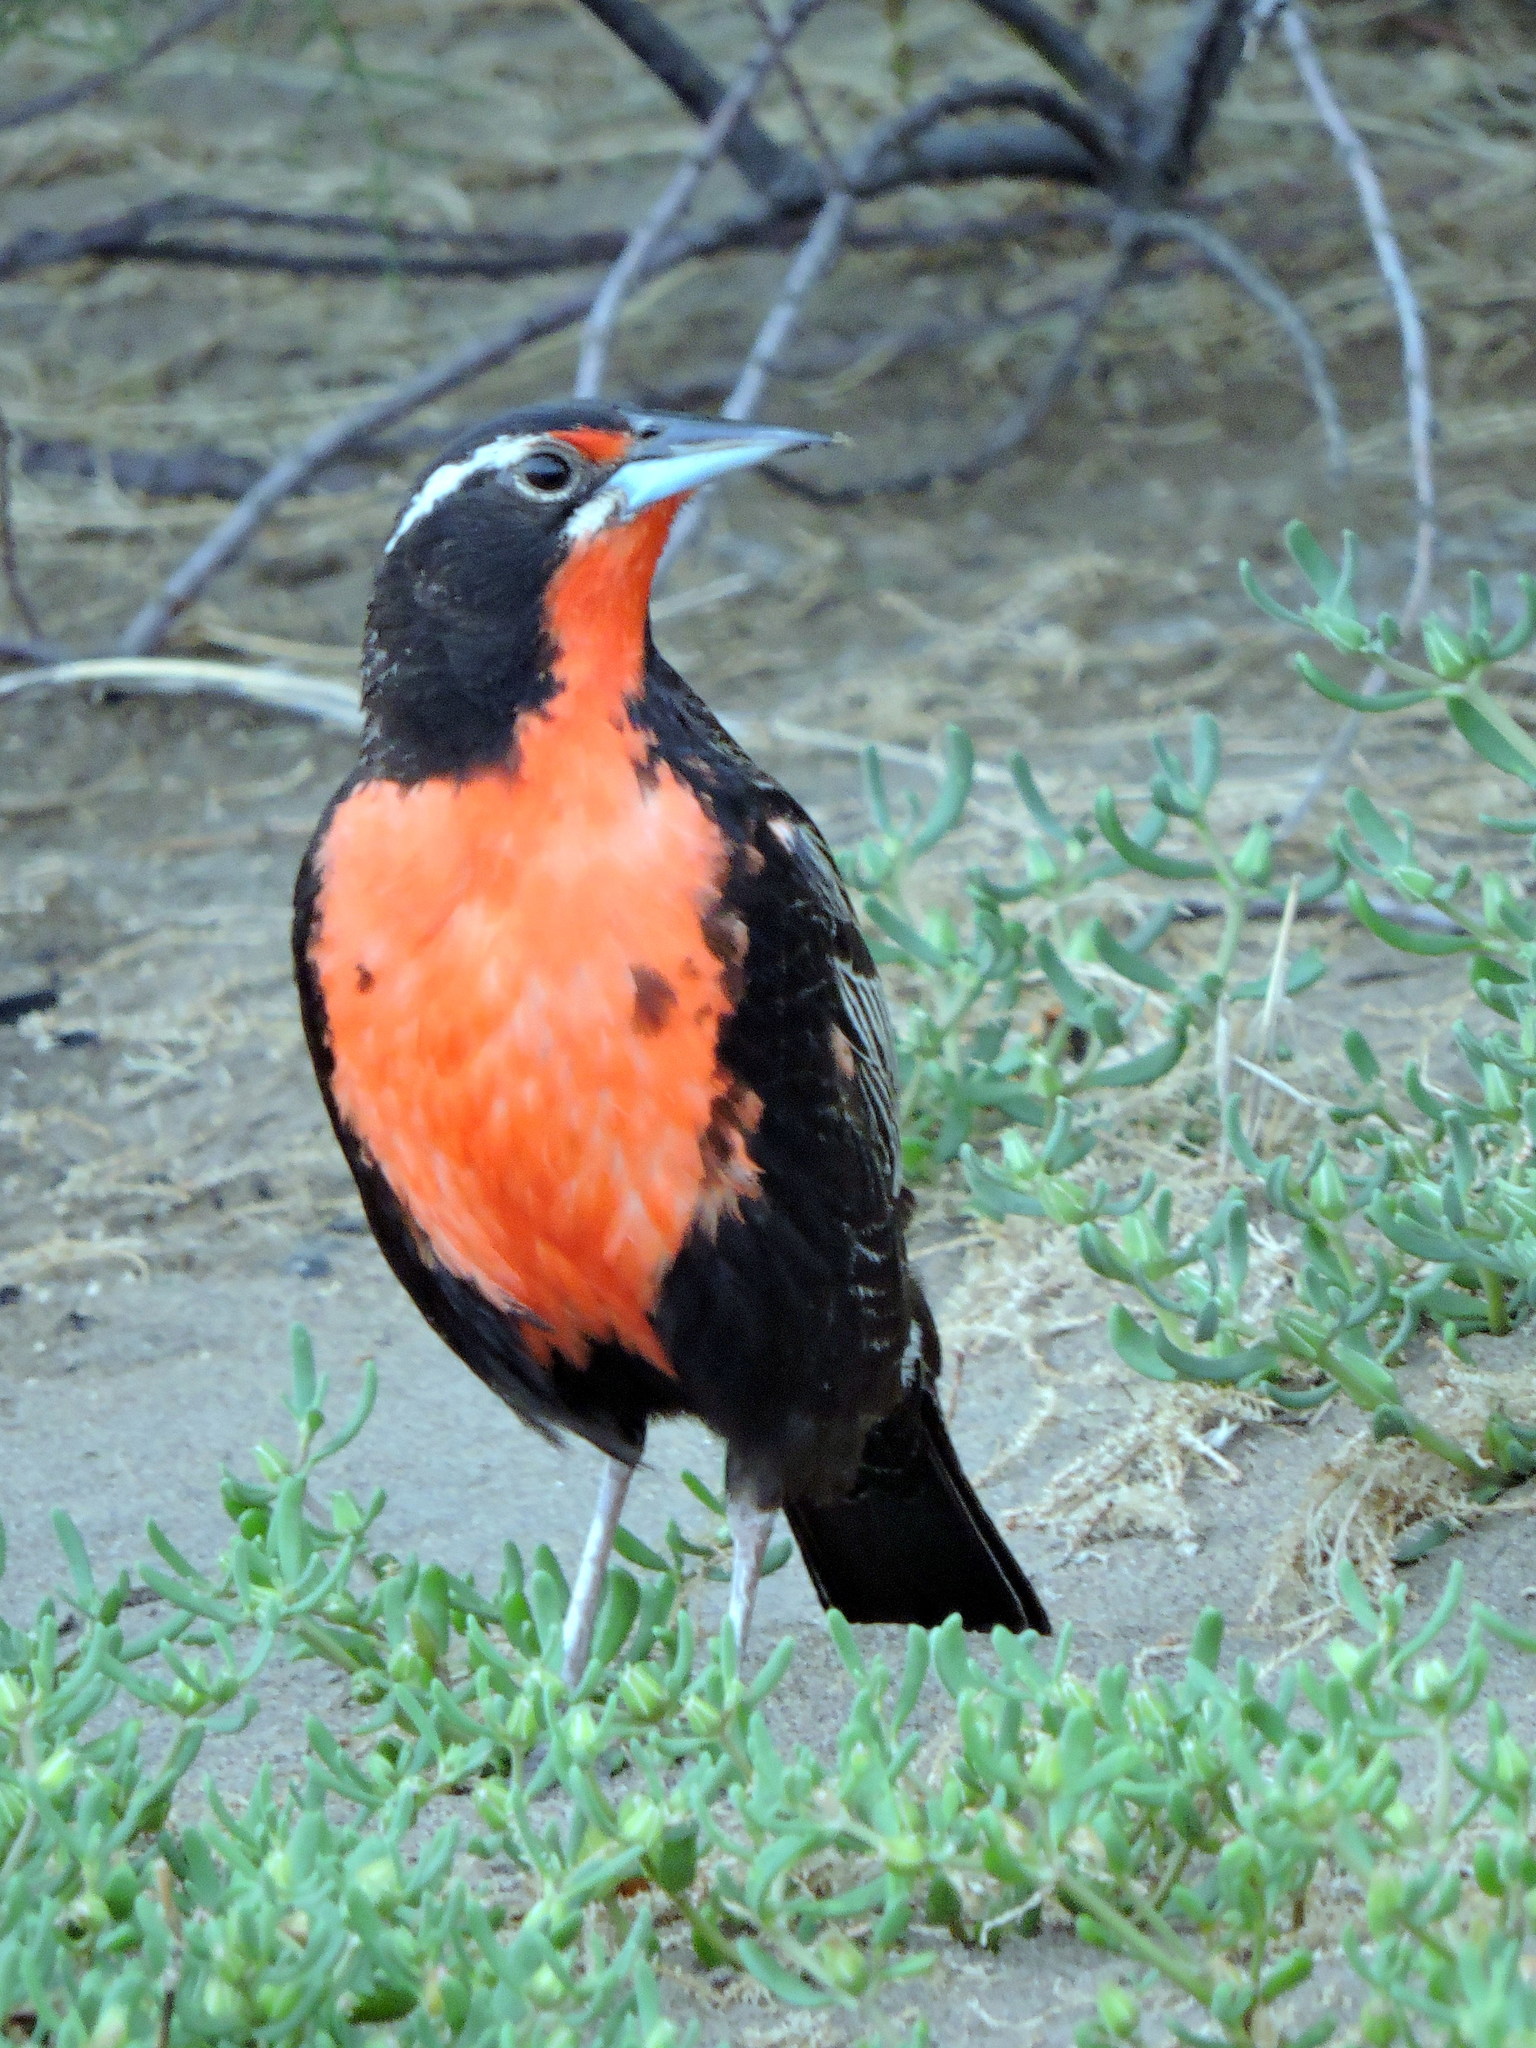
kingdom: Animalia
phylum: Chordata
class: Aves
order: Passeriformes
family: Icteridae
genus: Sturnella
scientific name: Sturnella loyca
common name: Long-tailed meadowlark
